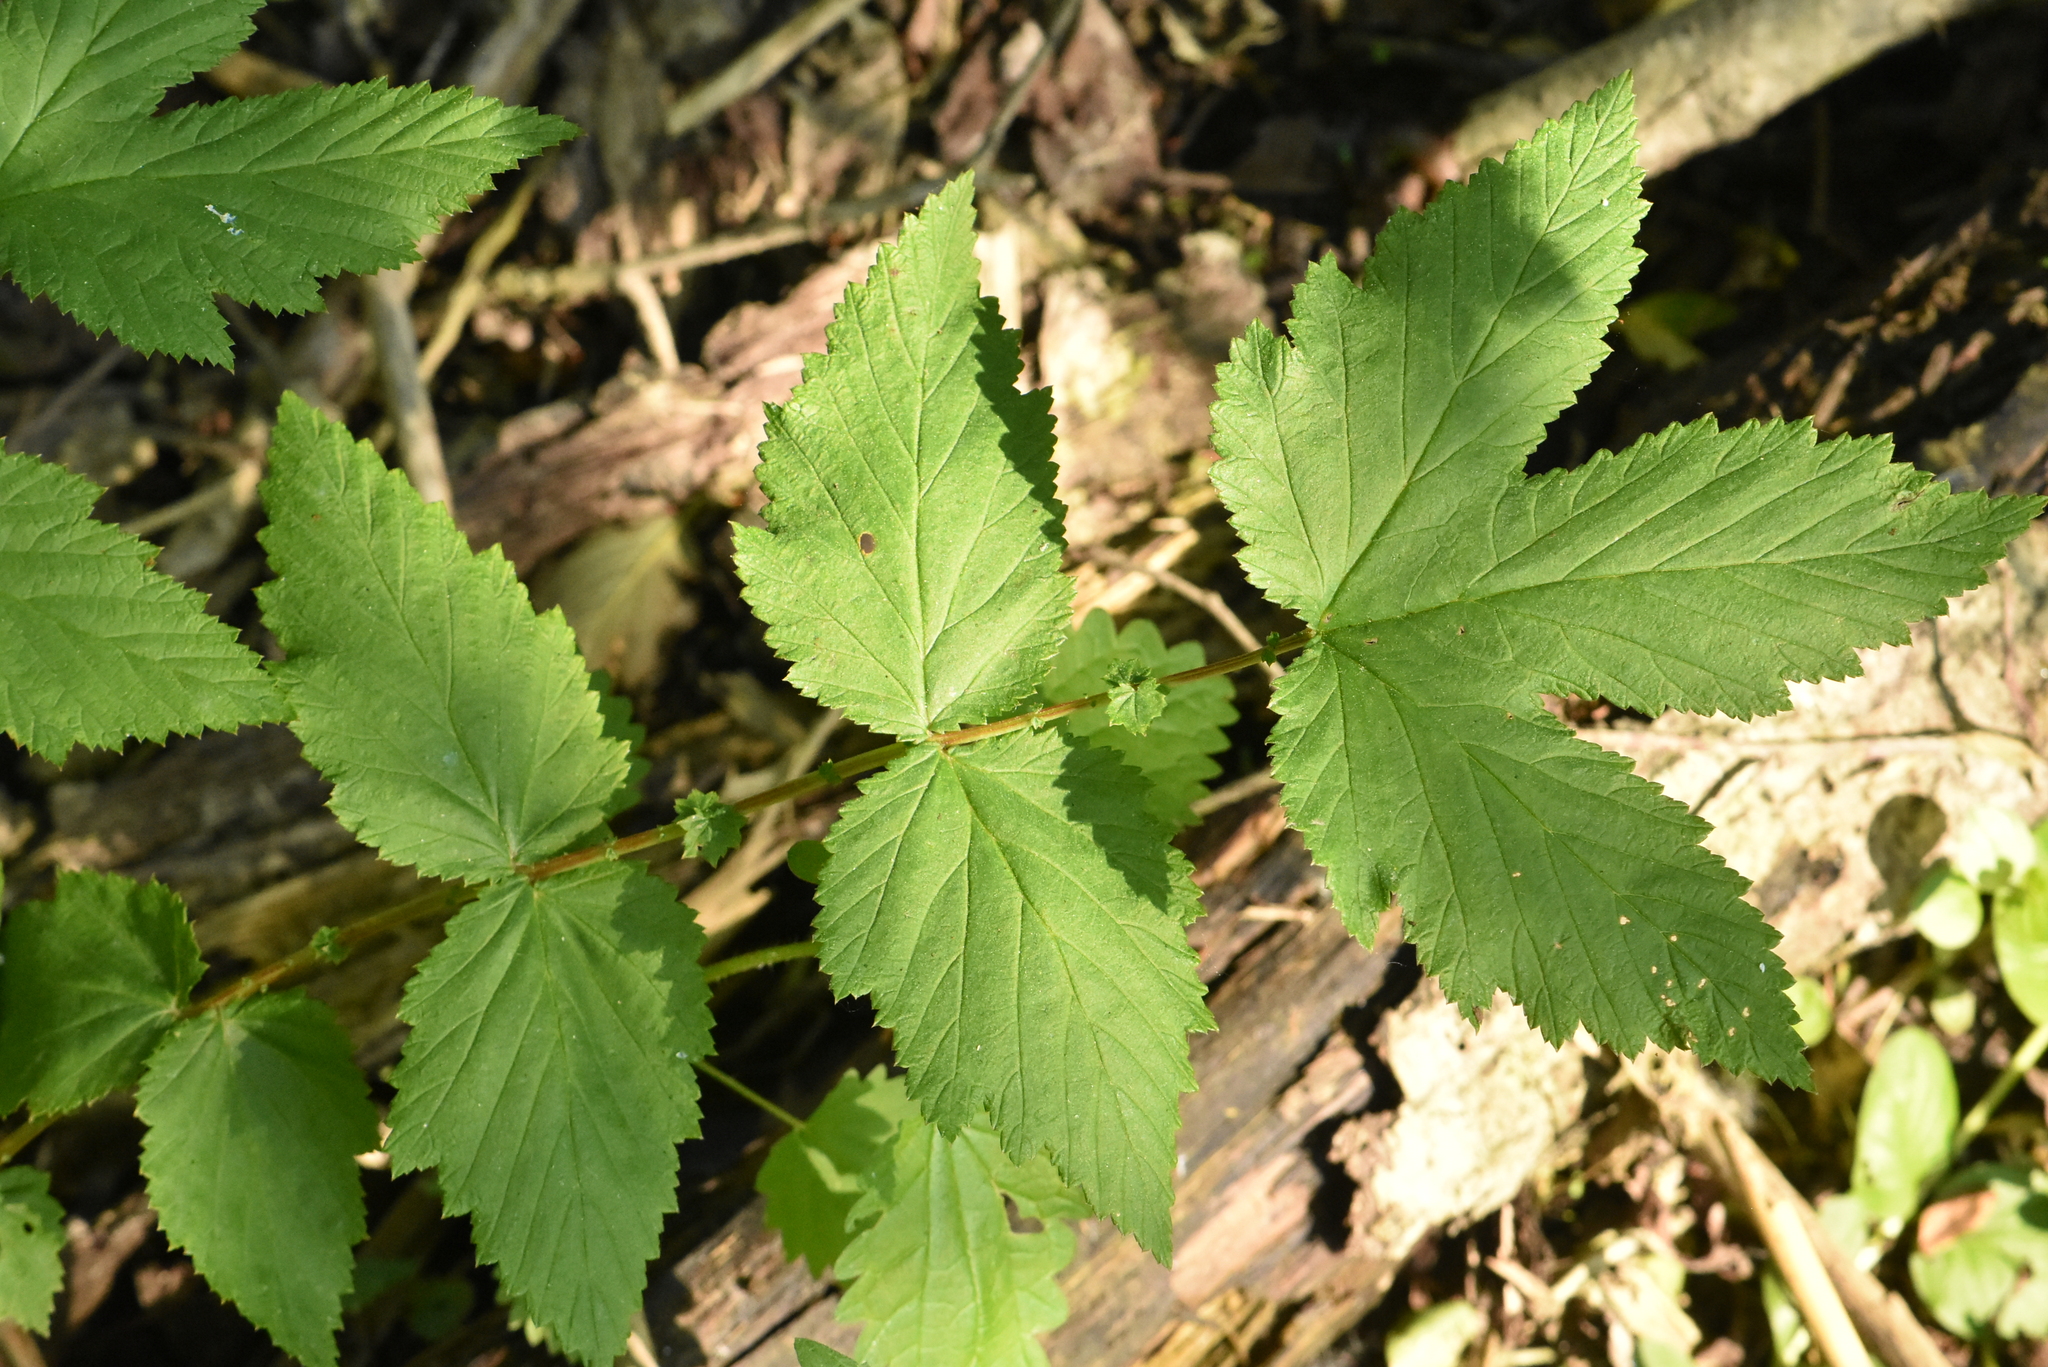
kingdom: Plantae
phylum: Tracheophyta
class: Magnoliopsida
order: Rosales
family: Rosaceae
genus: Filipendula
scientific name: Filipendula ulmaria
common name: Meadowsweet
